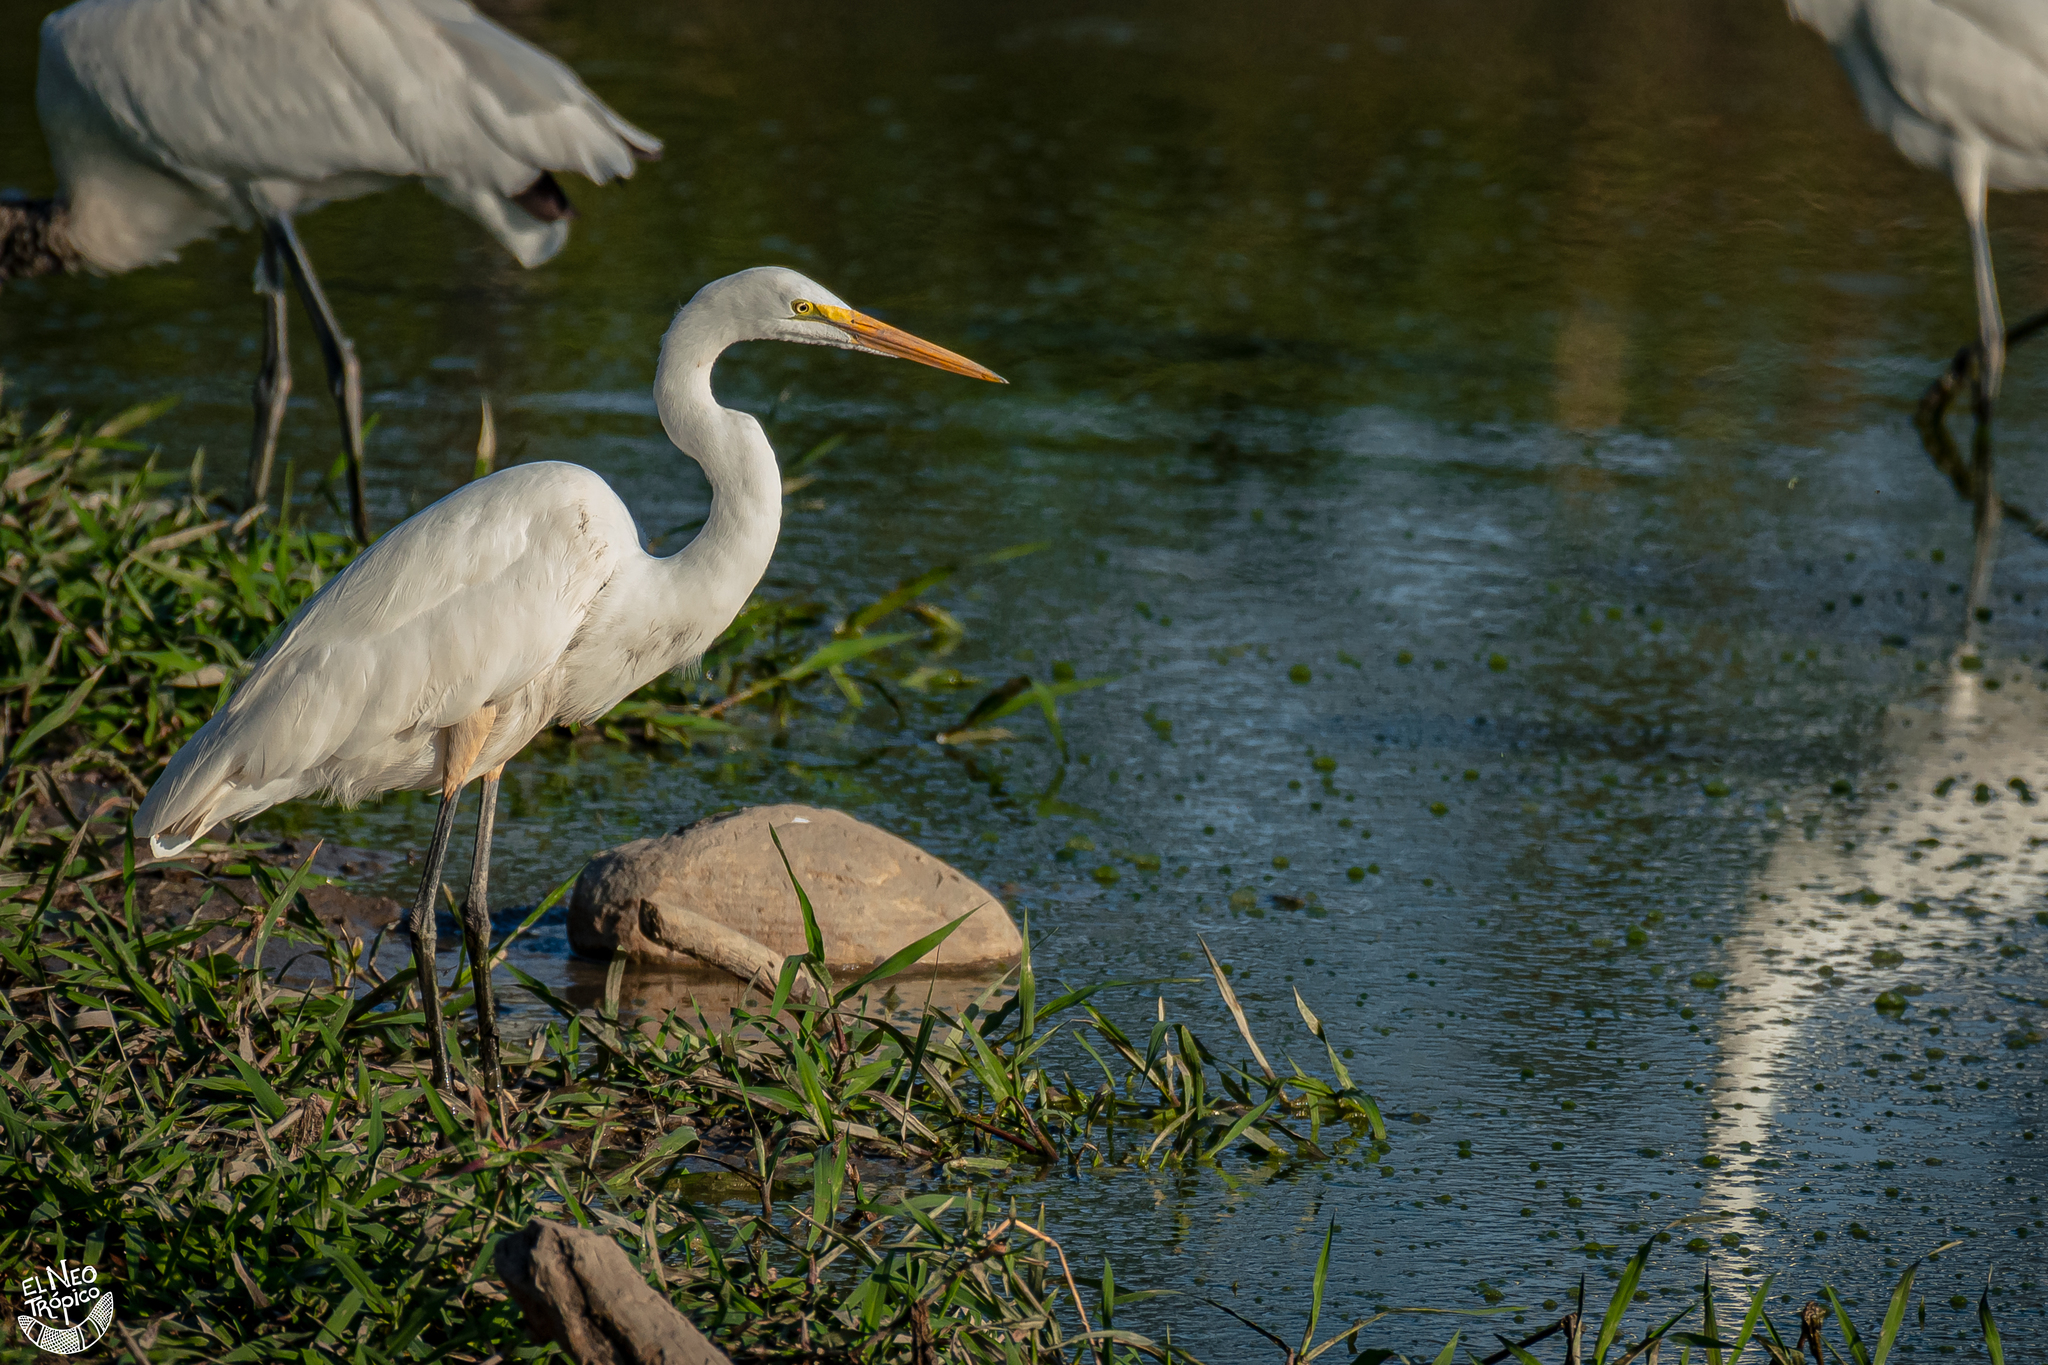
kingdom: Animalia
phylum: Chordata
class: Aves
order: Pelecaniformes
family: Ardeidae
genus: Ardea
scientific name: Ardea alba
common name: Great egret
